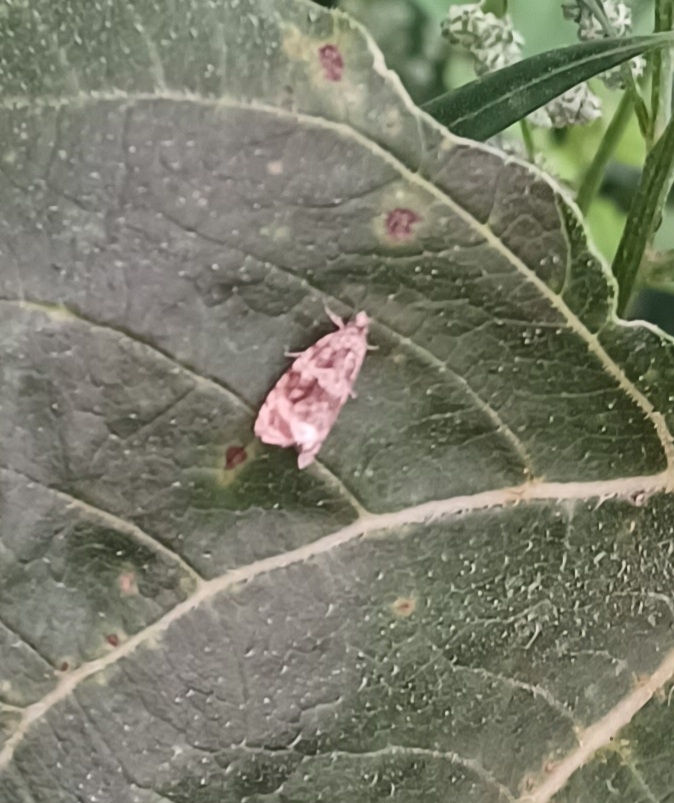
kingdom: Animalia
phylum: Arthropoda
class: Insecta
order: Lepidoptera
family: Tortricidae
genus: Syricoris
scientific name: Syricoris lacunana
